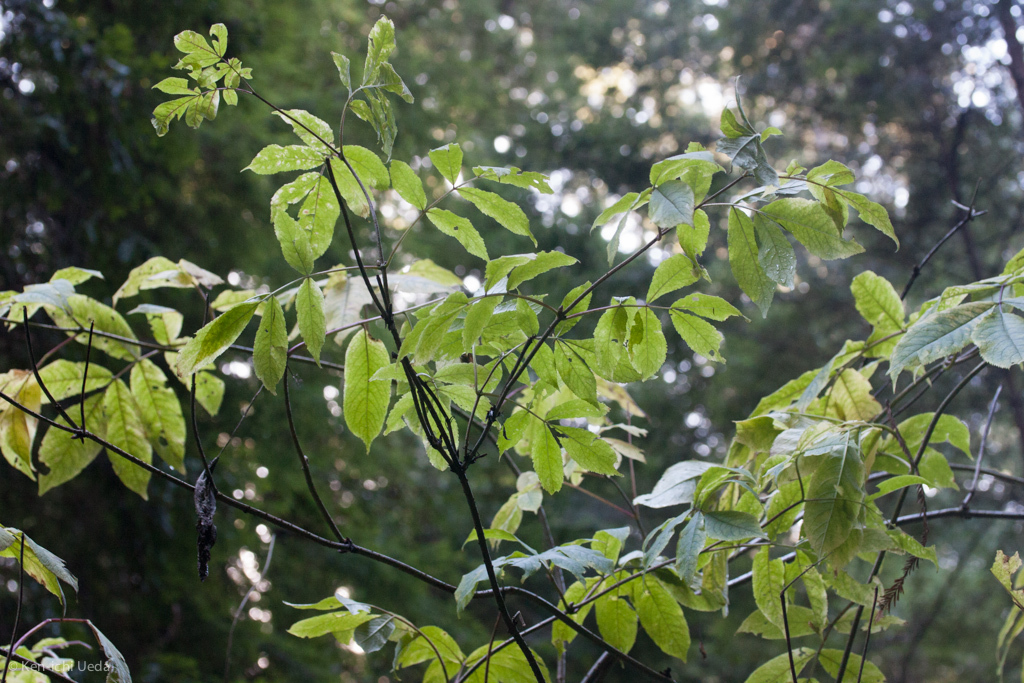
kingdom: Plantae
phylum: Tracheophyta
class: Magnoliopsida
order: Dipsacales
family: Viburnaceae
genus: Sambucus
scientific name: Sambucus racemosa
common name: Red-berried elder
